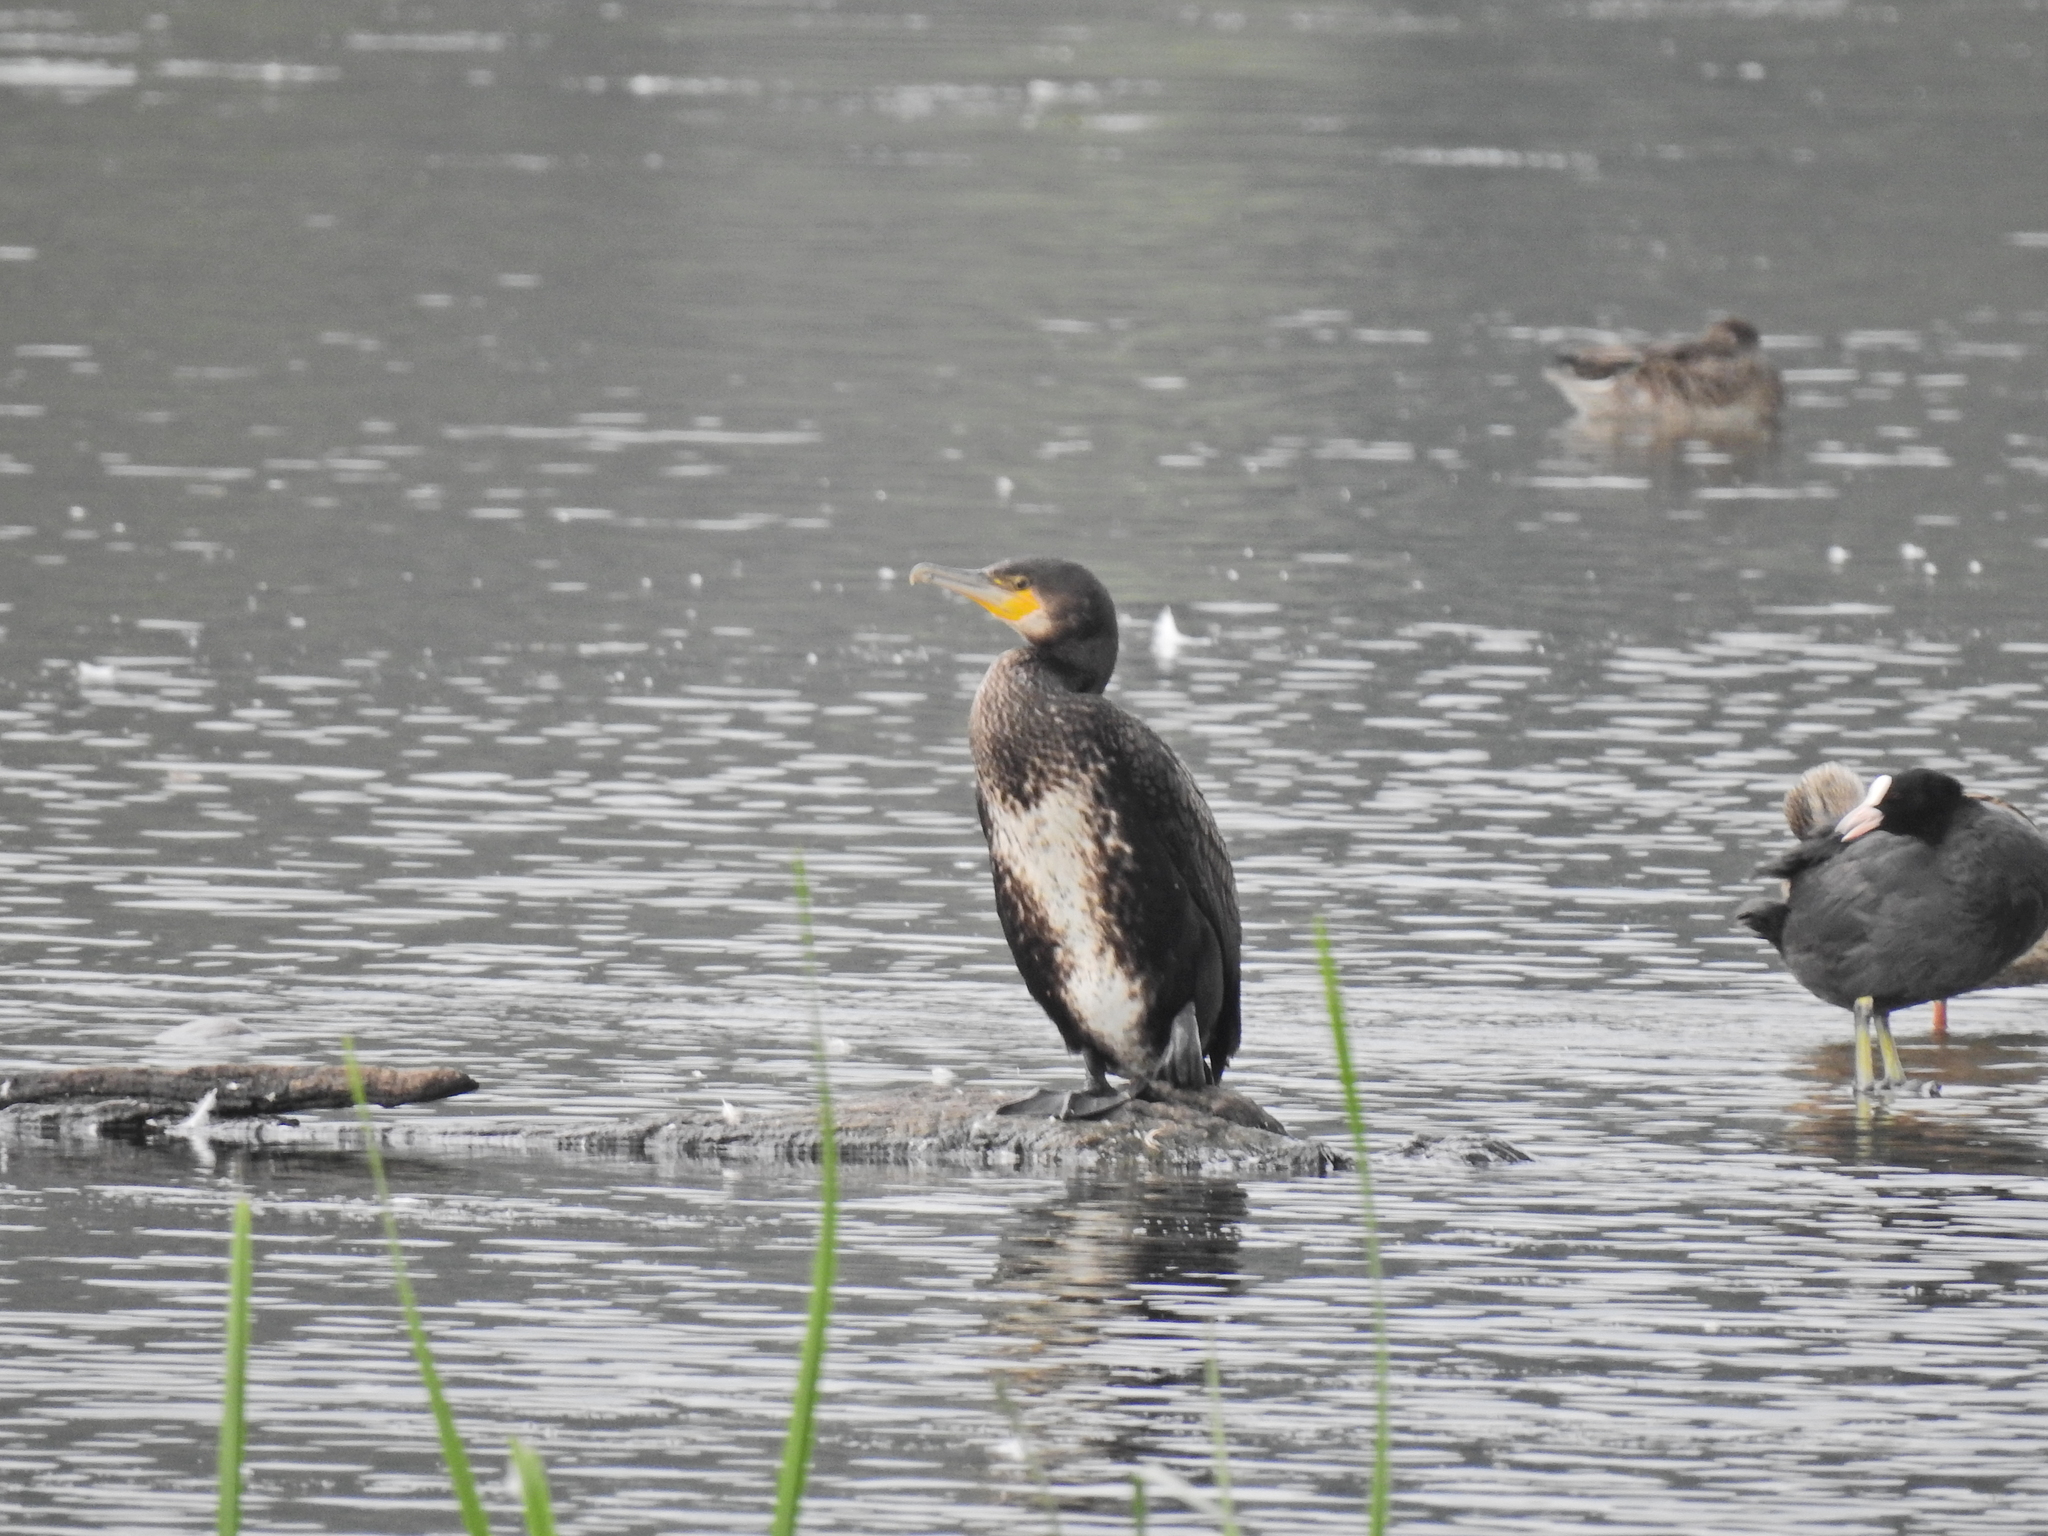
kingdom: Animalia
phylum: Chordata
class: Aves
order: Suliformes
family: Phalacrocoracidae
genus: Phalacrocorax
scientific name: Phalacrocorax carbo
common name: Great cormorant
